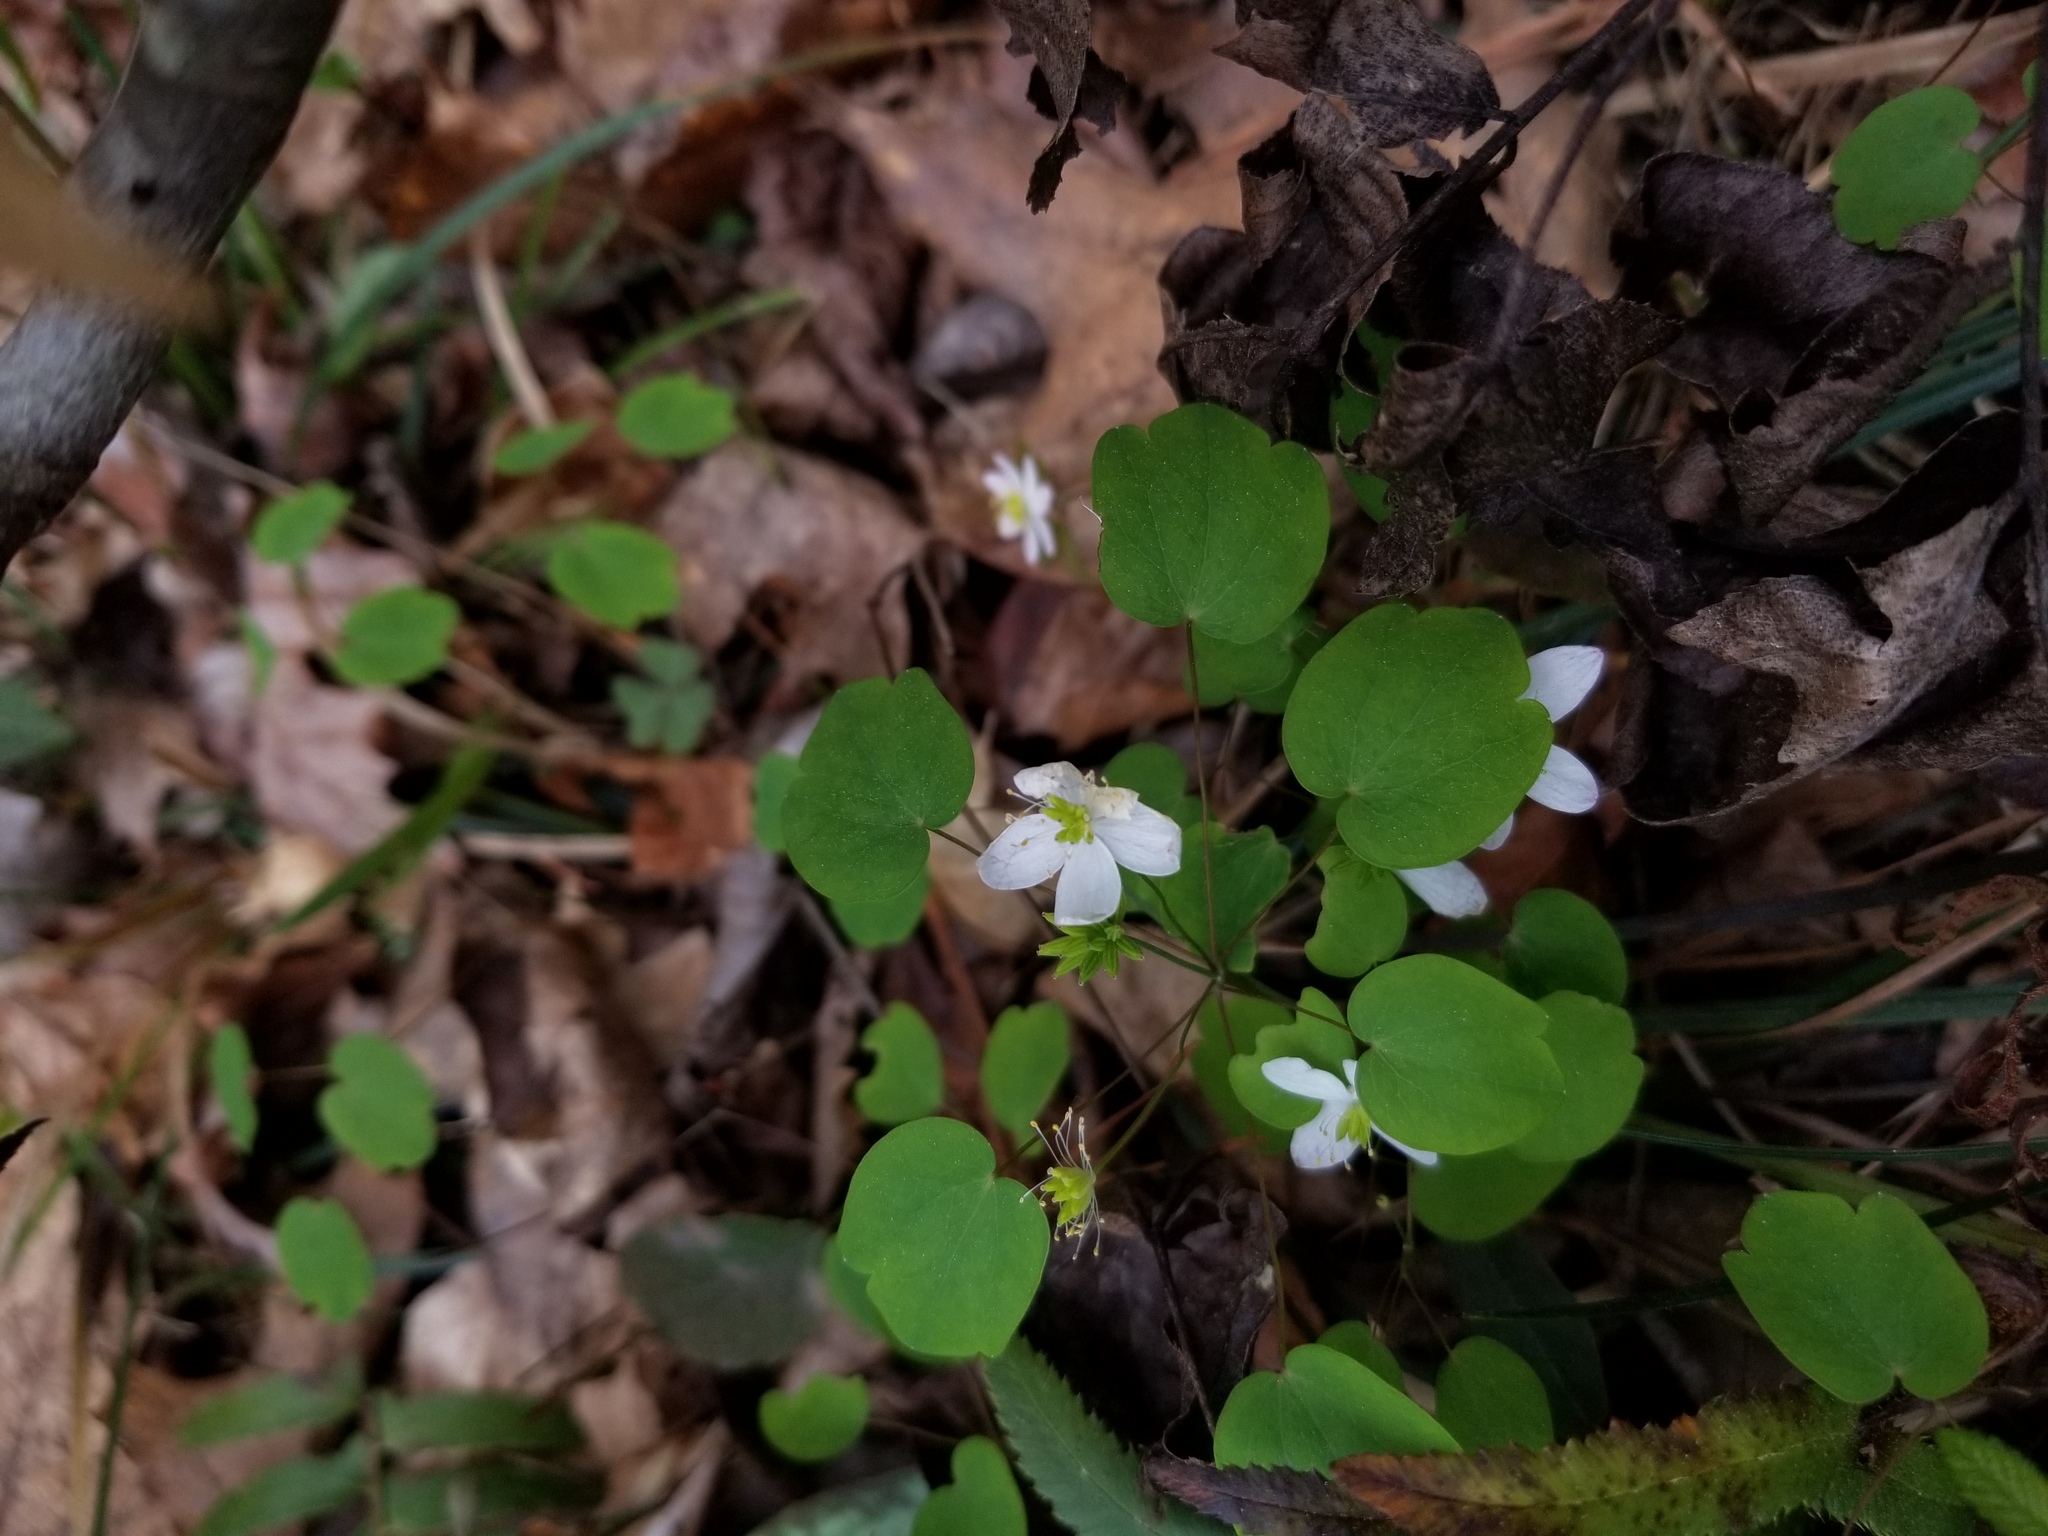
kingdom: Plantae
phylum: Tracheophyta
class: Magnoliopsida
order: Ranunculales
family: Ranunculaceae
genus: Thalictrum
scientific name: Thalictrum thalictroides
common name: Rue-anemone
